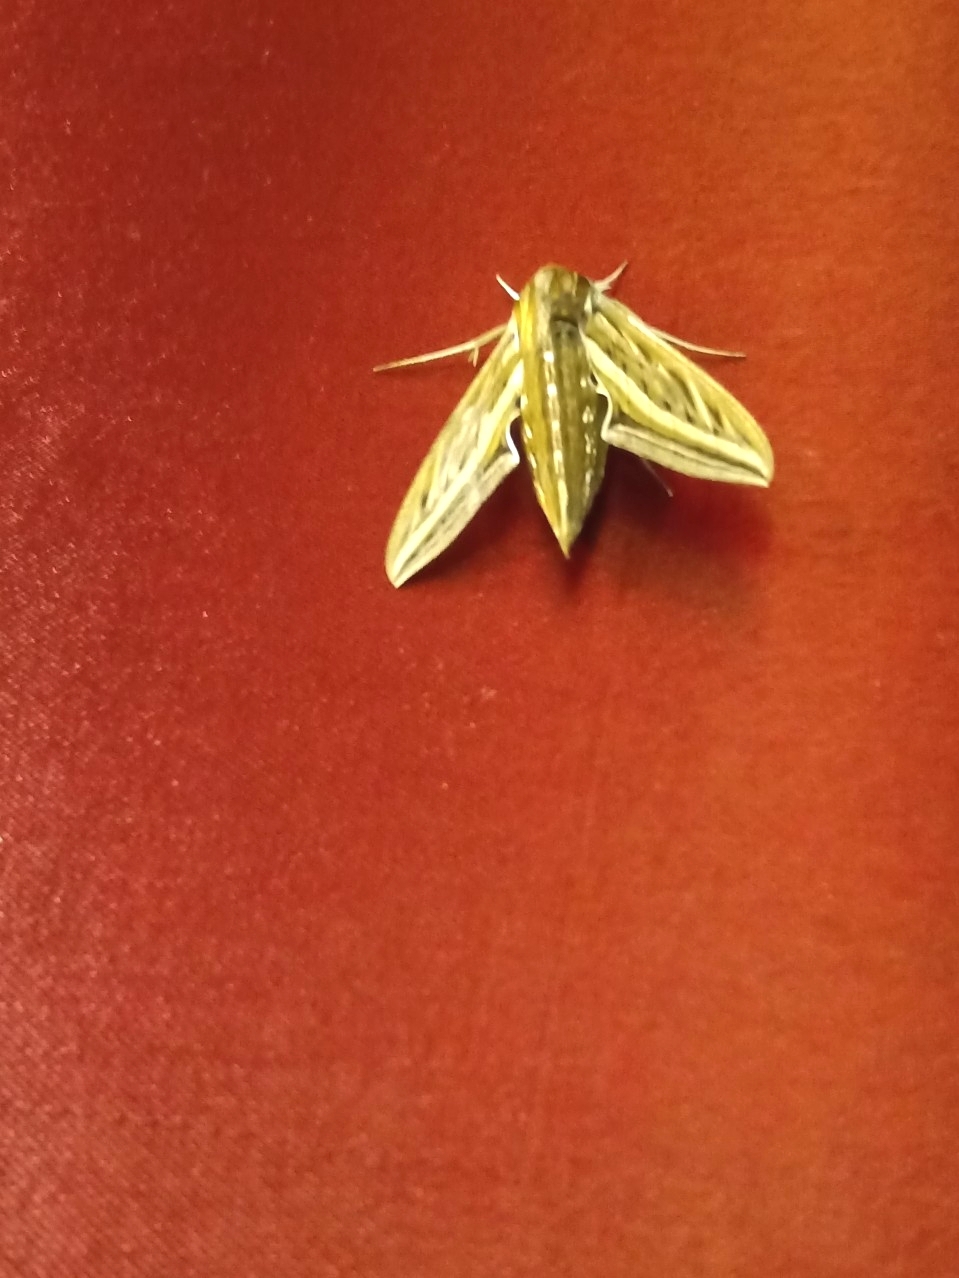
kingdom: Animalia
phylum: Arthropoda
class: Insecta
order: Lepidoptera
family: Sphingidae
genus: Hippotion
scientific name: Hippotion celerio
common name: Silver-striped hawk-moth
